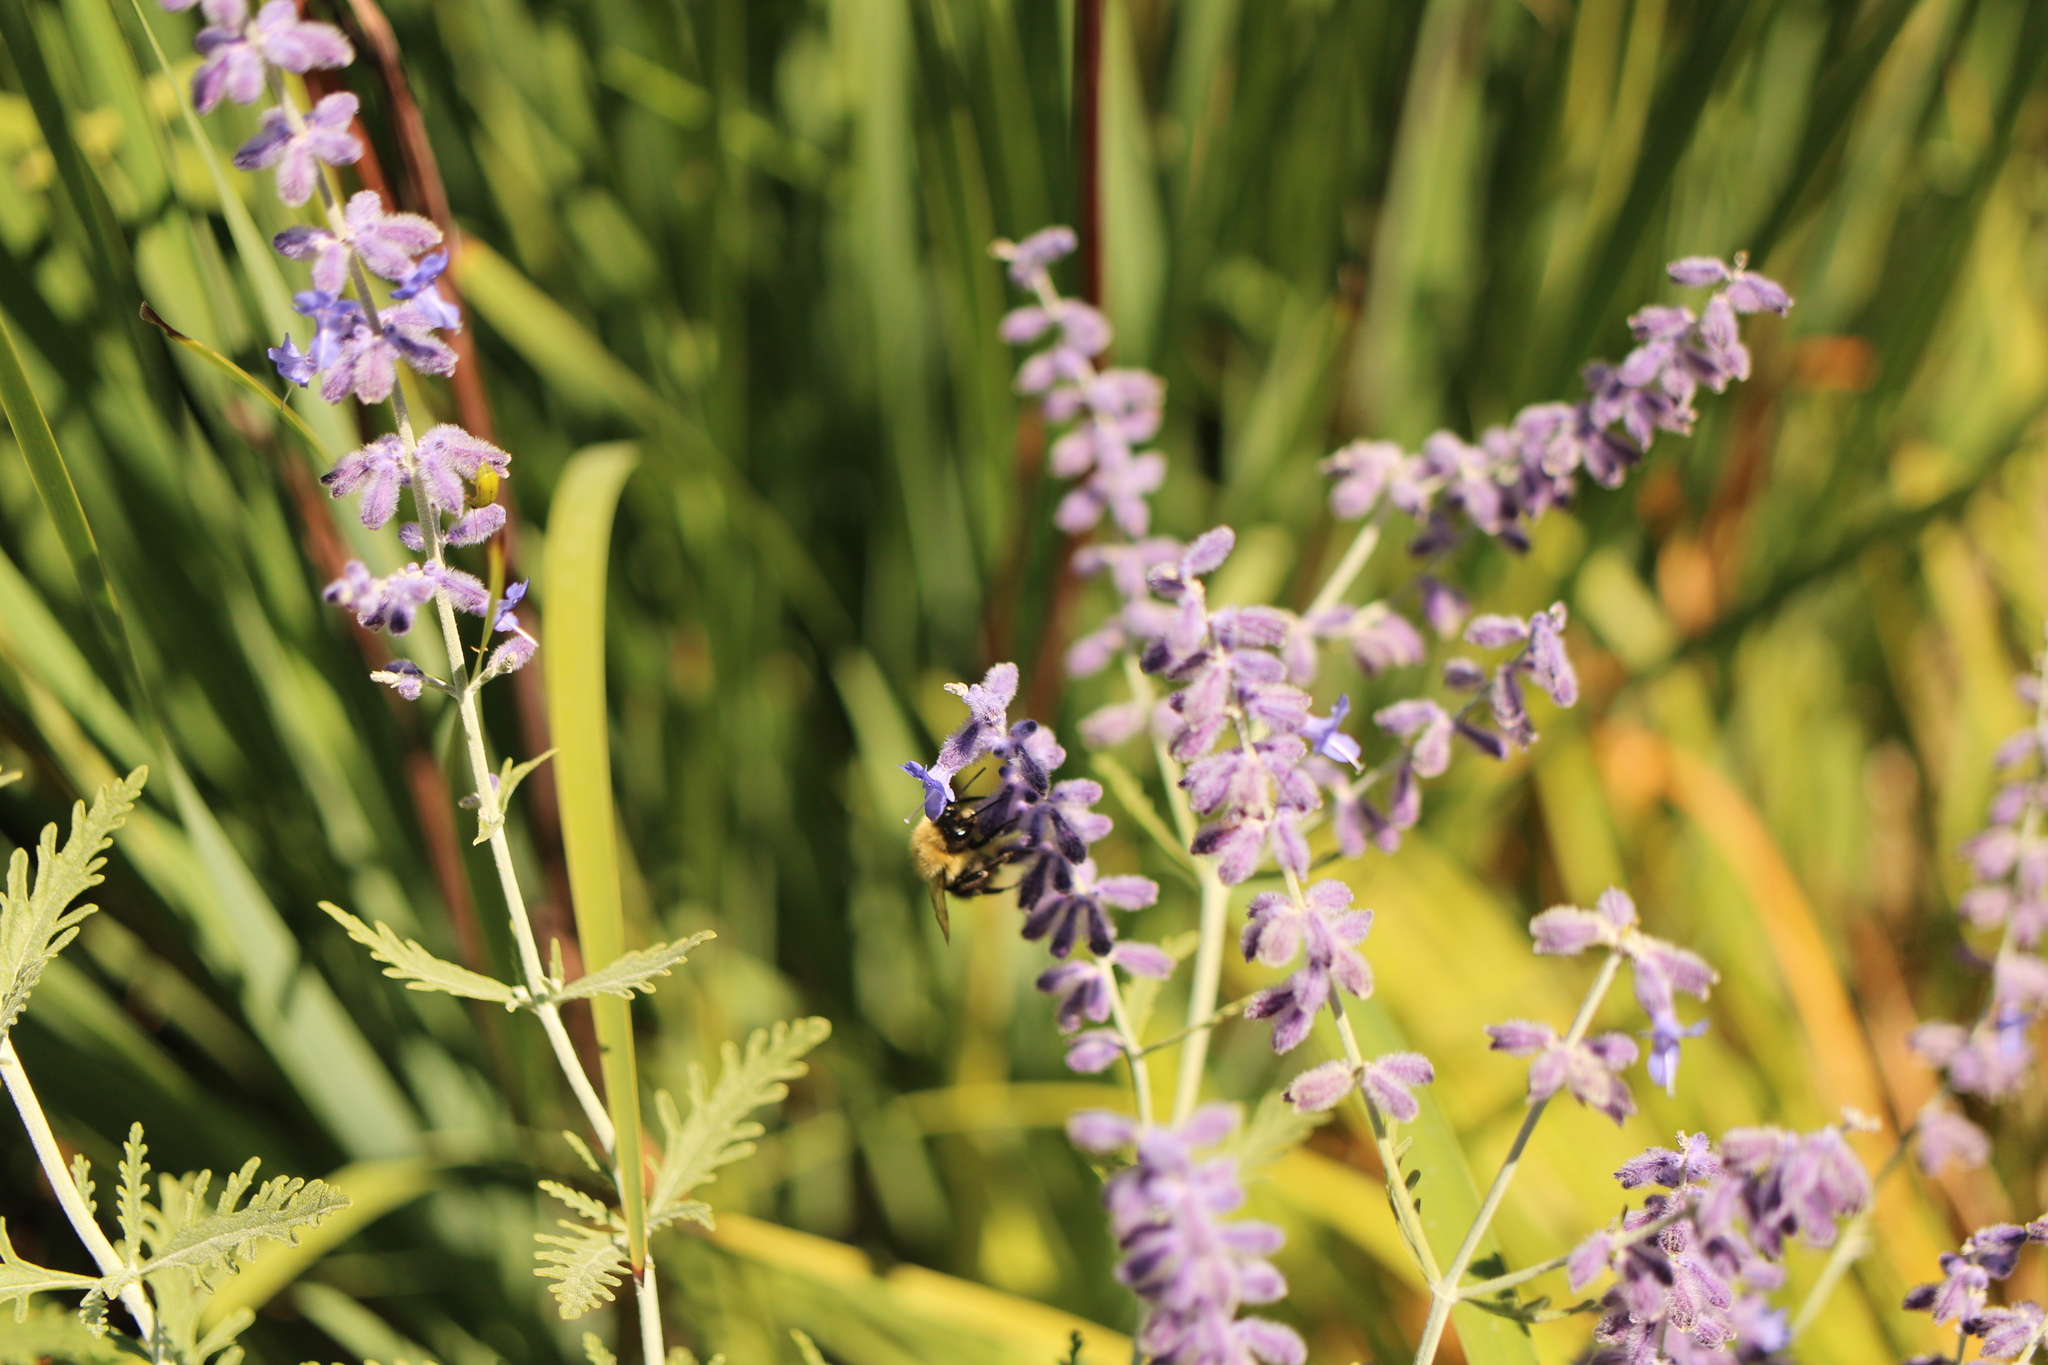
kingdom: Animalia
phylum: Arthropoda
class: Insecta
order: Hymenoptera
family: Apidae
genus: Bombus
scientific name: Bombus impatiens
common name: Common eastern bumble bee
